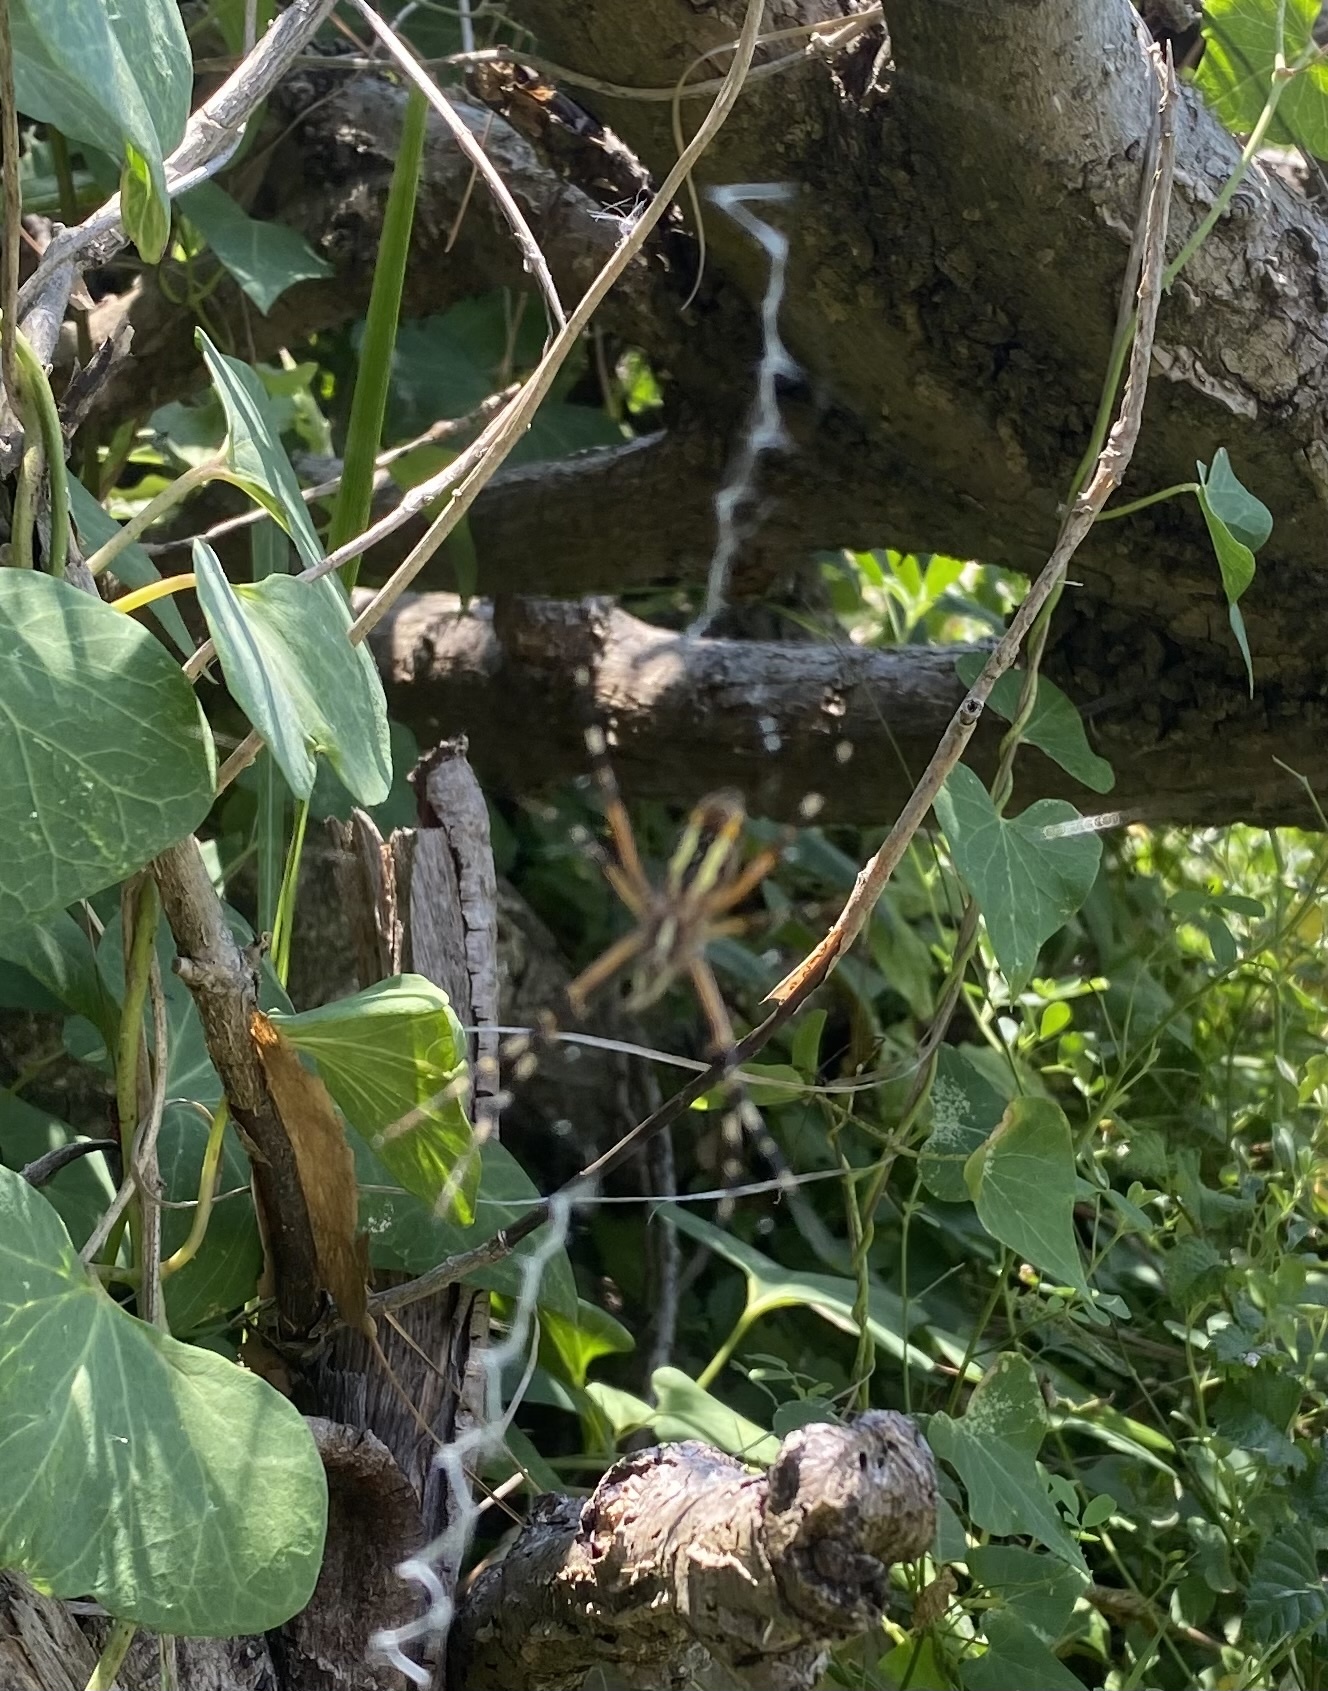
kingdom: Animalia
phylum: Arthropoda
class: Arachnida
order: Araneae
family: Araneidae
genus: Argiope
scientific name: Argiope bruennichi
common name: Wasp spider
